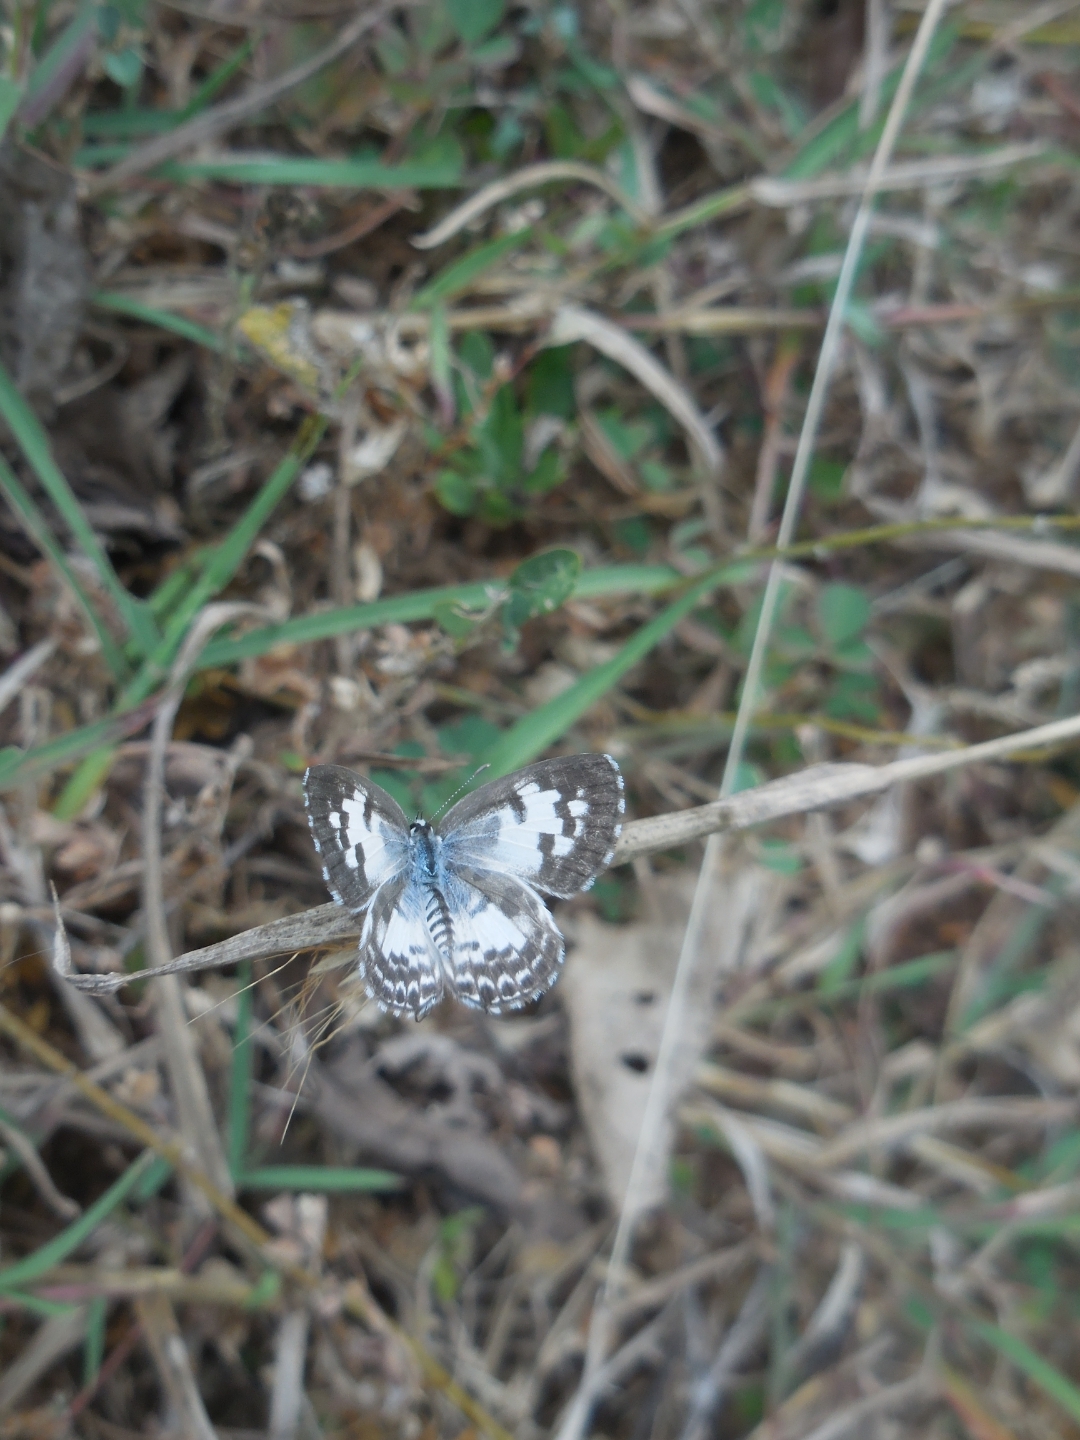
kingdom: Animalia
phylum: Arthropoda
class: Insecta
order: Lepidoptera
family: Lycaenidae
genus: Castalius
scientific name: Castalius rosimon
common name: Common pierrot
